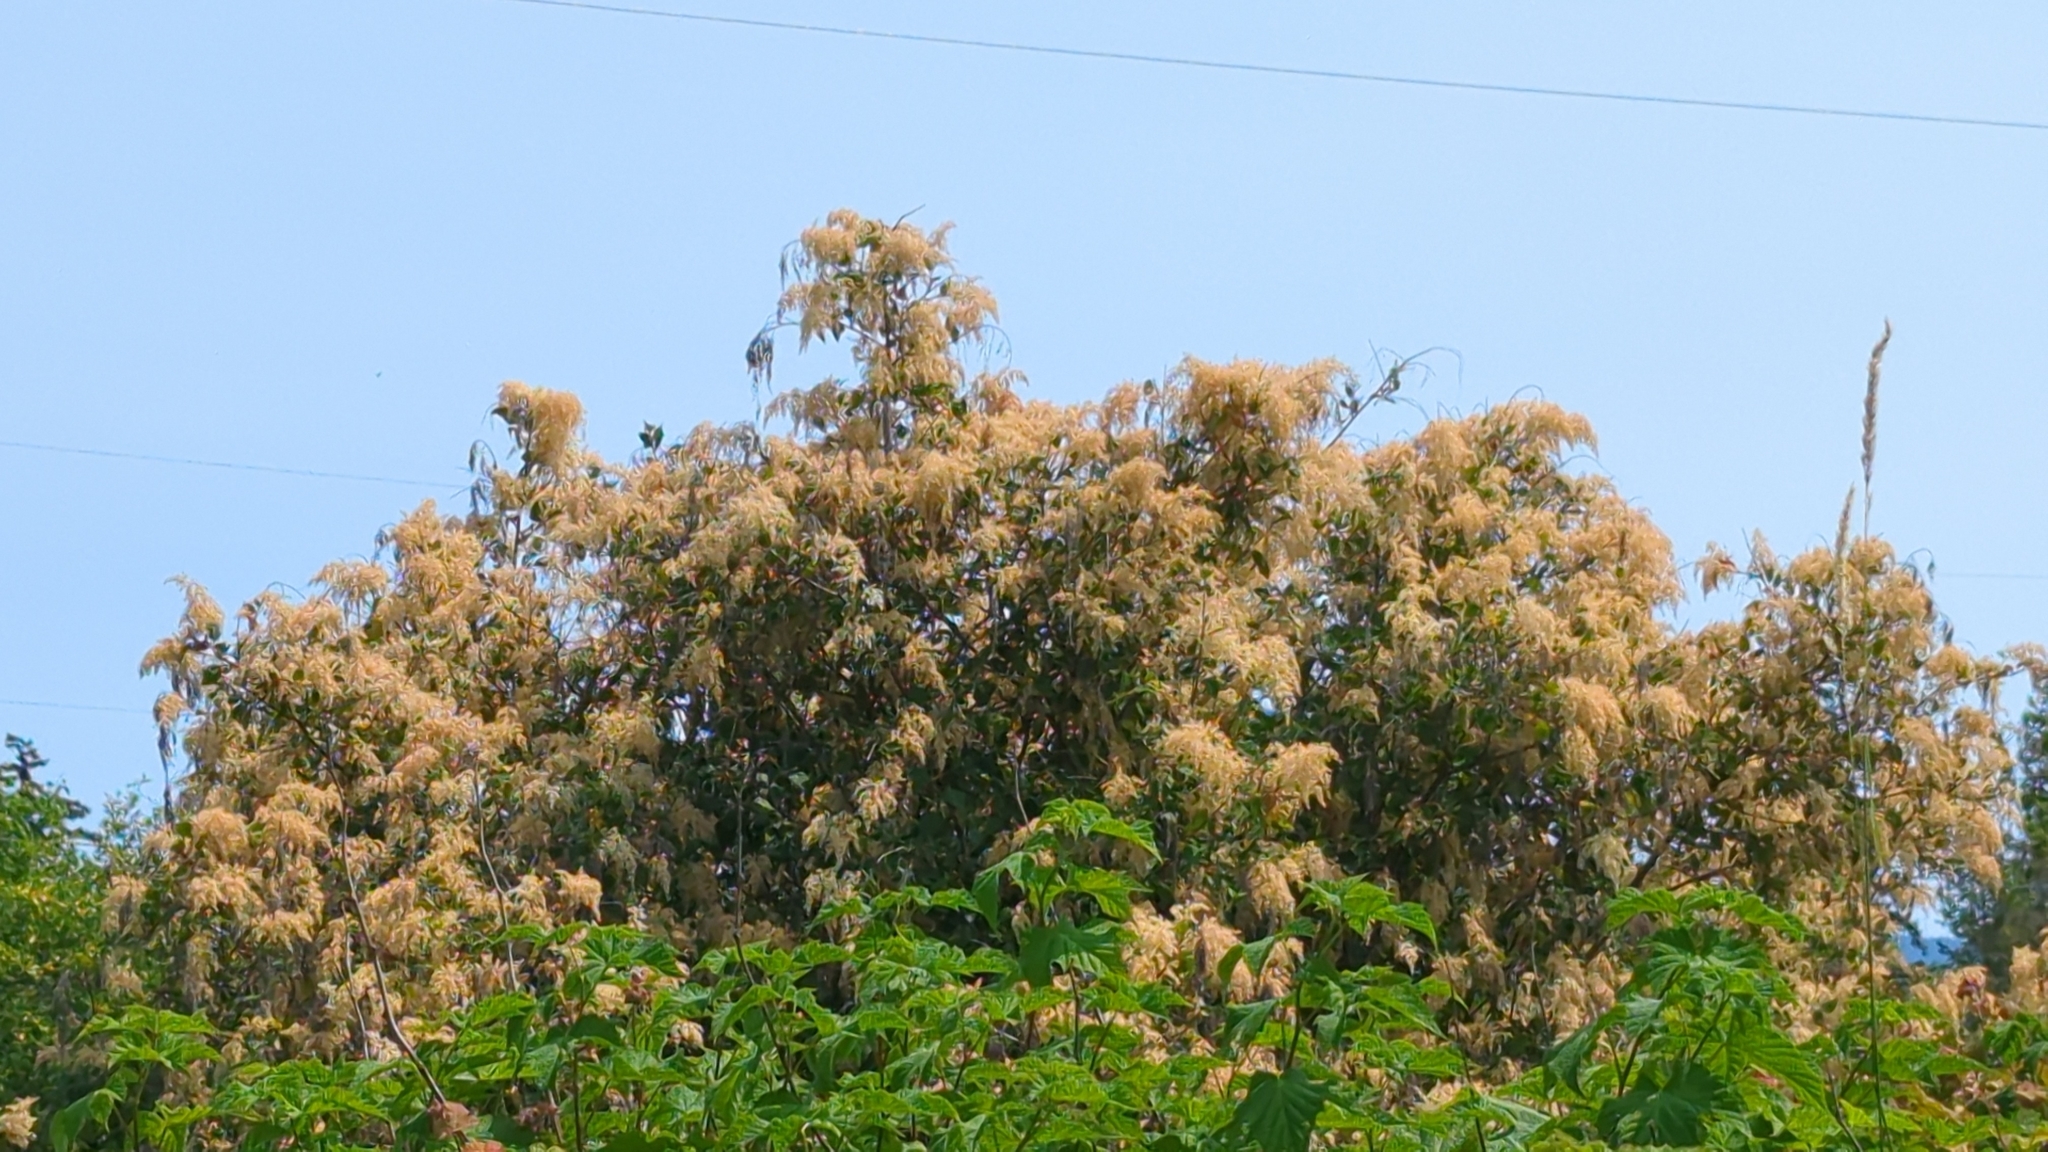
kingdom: Plantae
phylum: Tracheophyta
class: Magnoliopsida
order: Rosales
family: Rosaceae
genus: Holodiscus
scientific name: Holodiscus discolor
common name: Oceanspray
